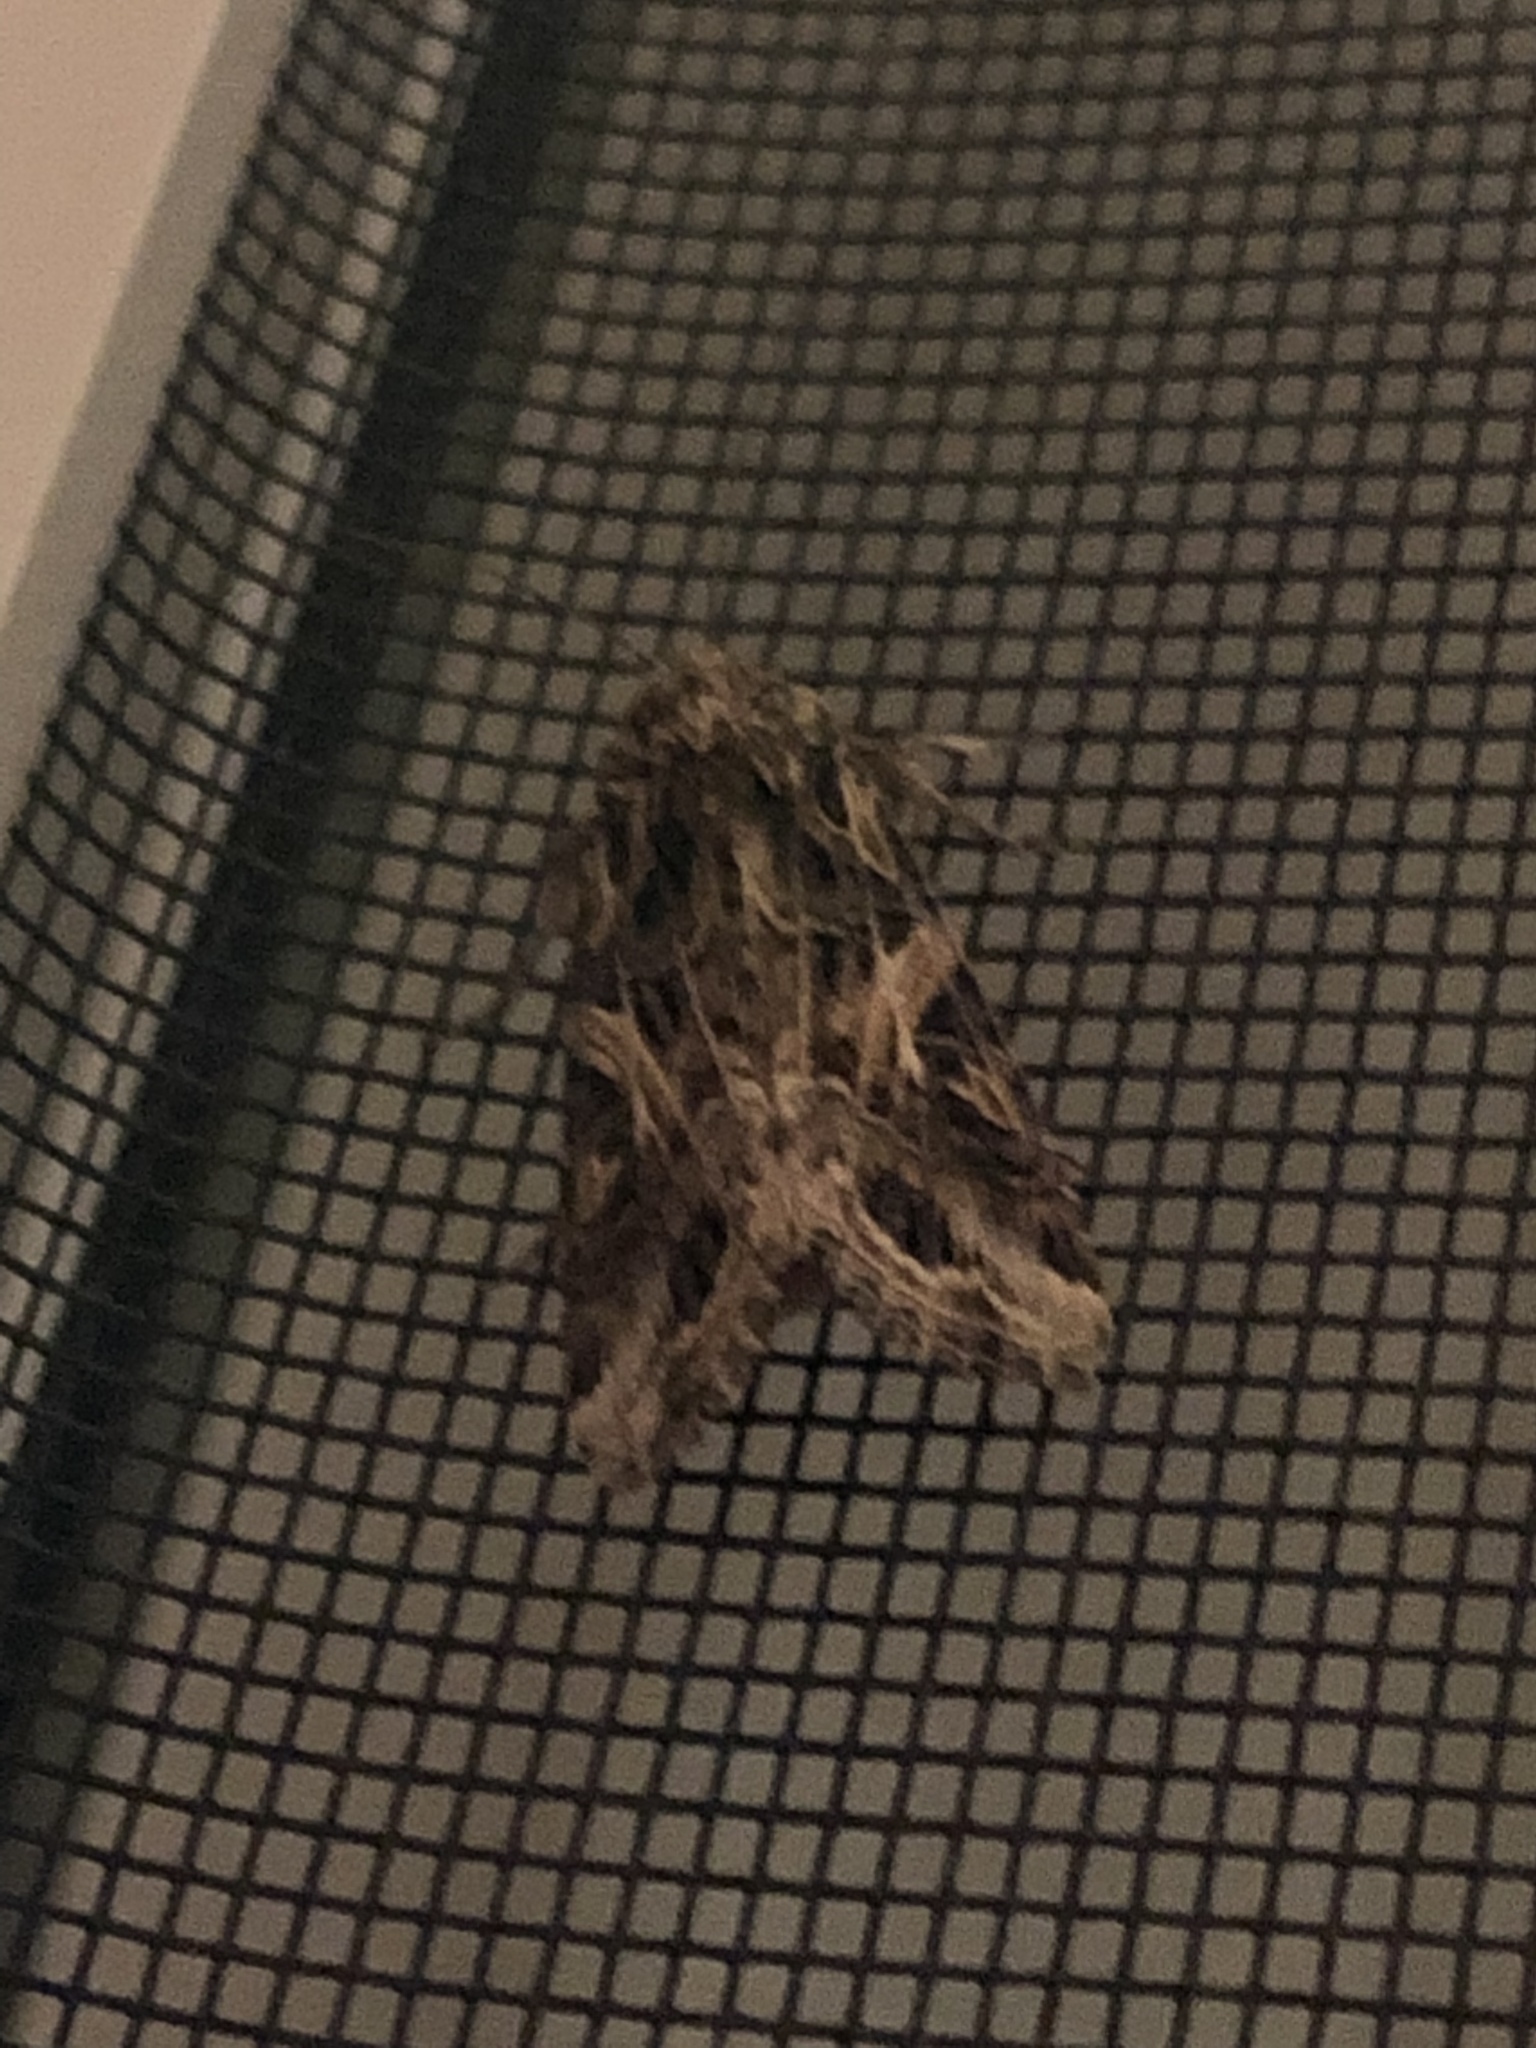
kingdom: Animalia
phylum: Arthropoda
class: Insecta
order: Lepidoptera
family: Noctuidae
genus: Spodoptera
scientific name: Spodoptera ornithogalli
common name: Yellow-striped armyworm
